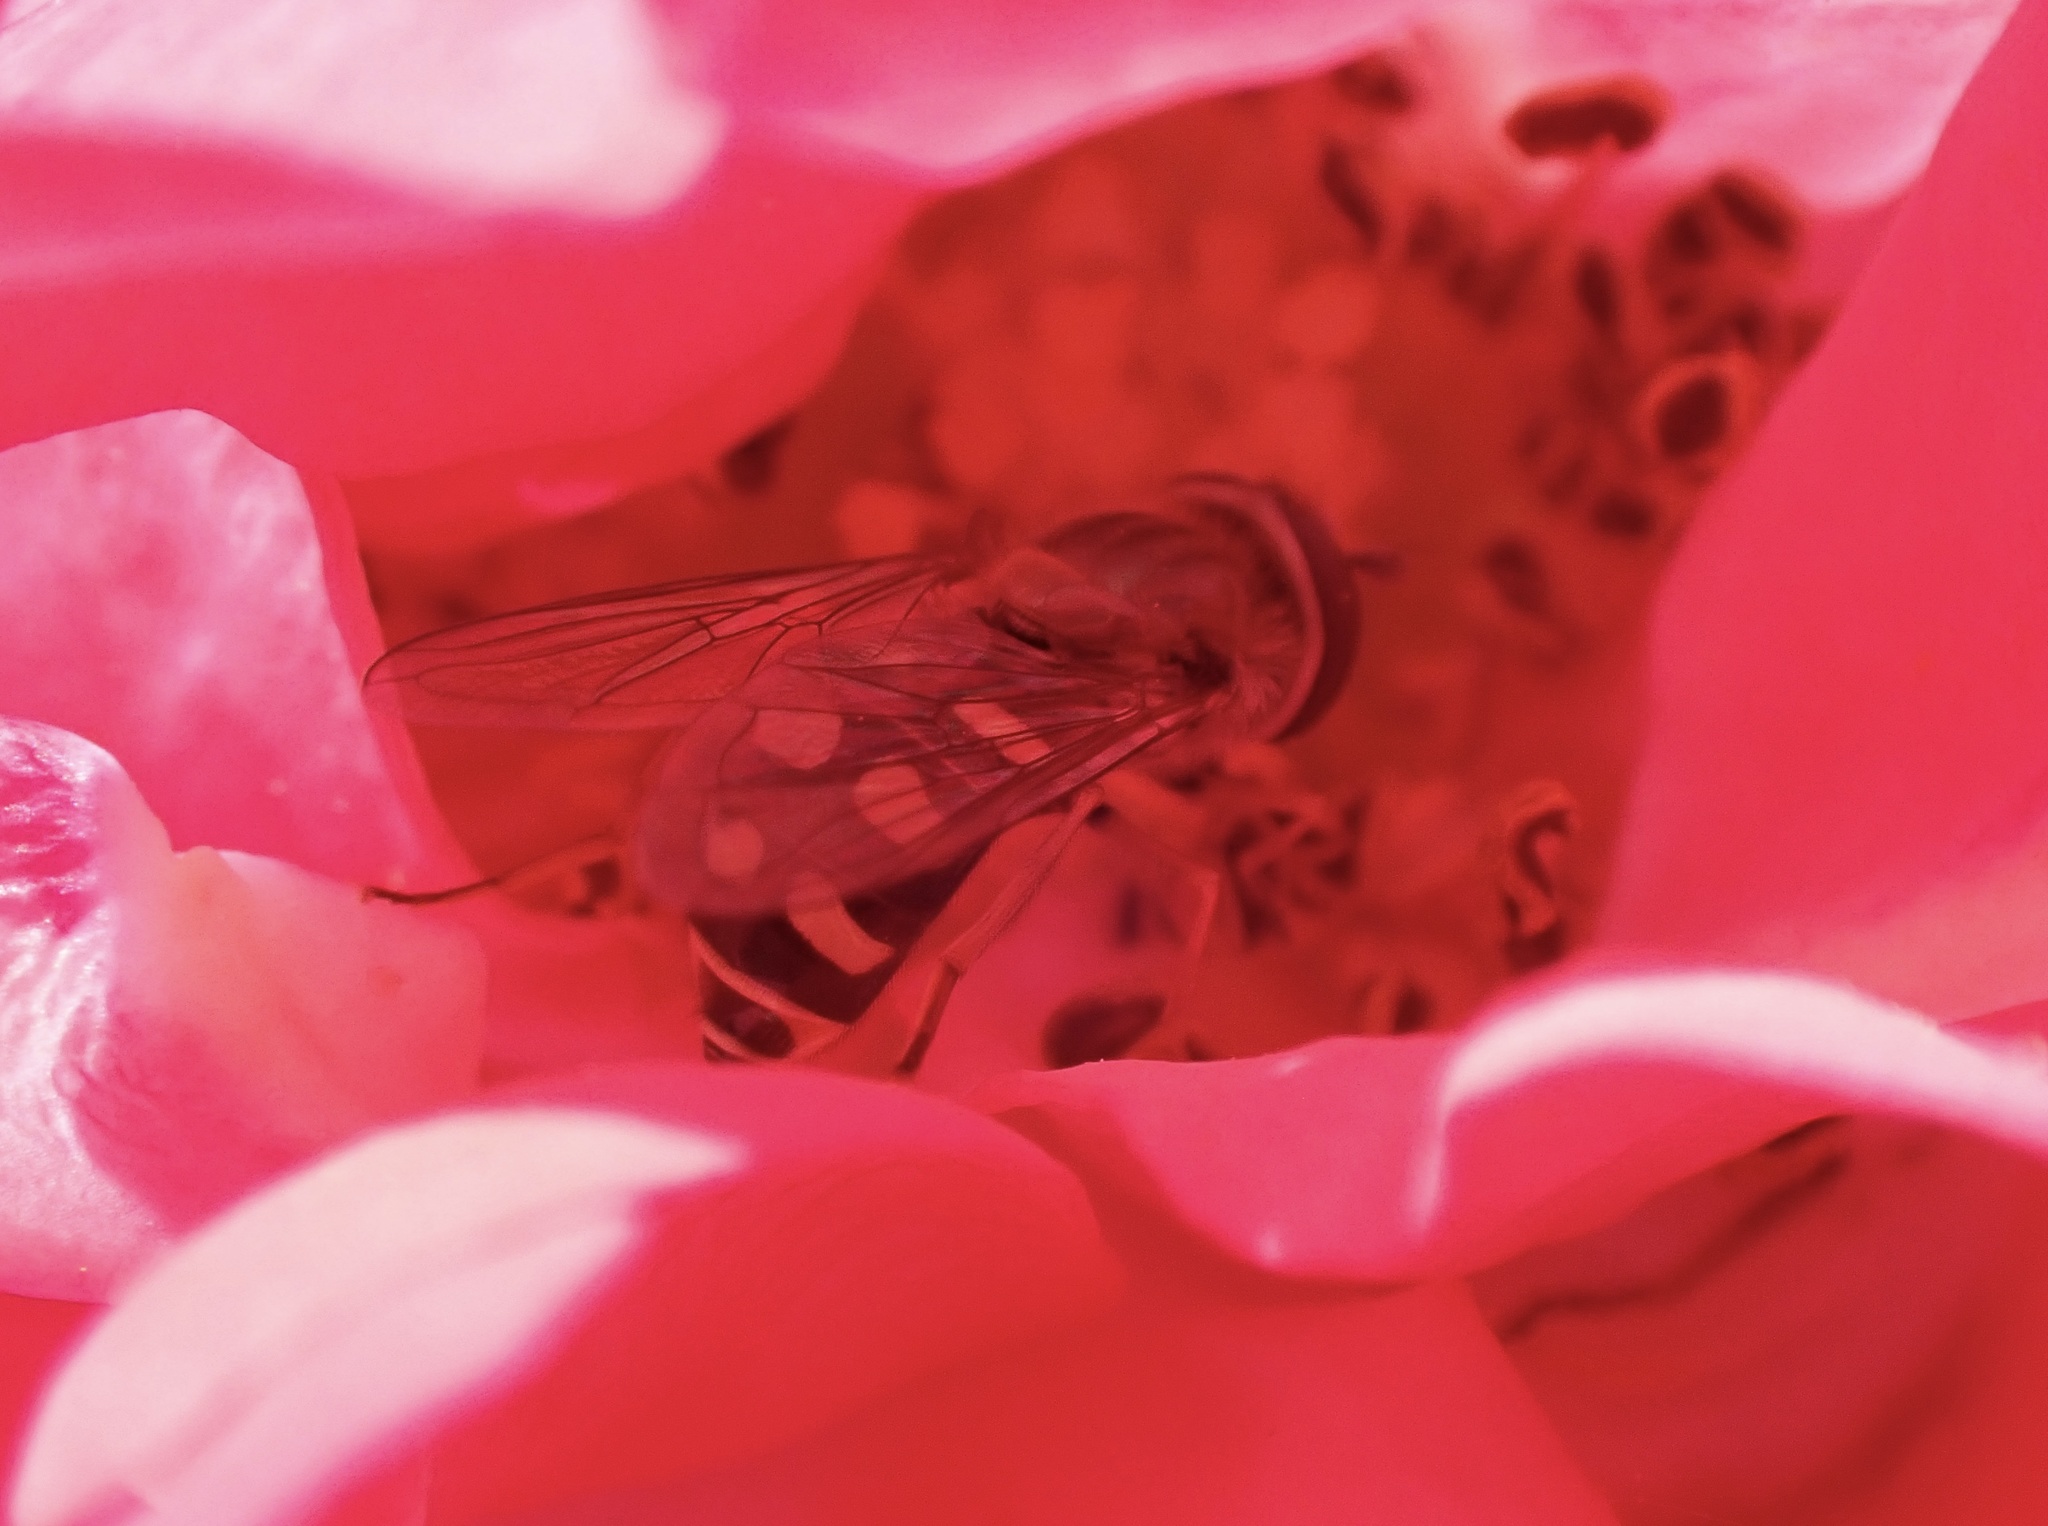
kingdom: Animalia
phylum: Arthropoda
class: Insecta
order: Diptera
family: Syrphidae
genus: Eupeodes
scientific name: Eupeodes
